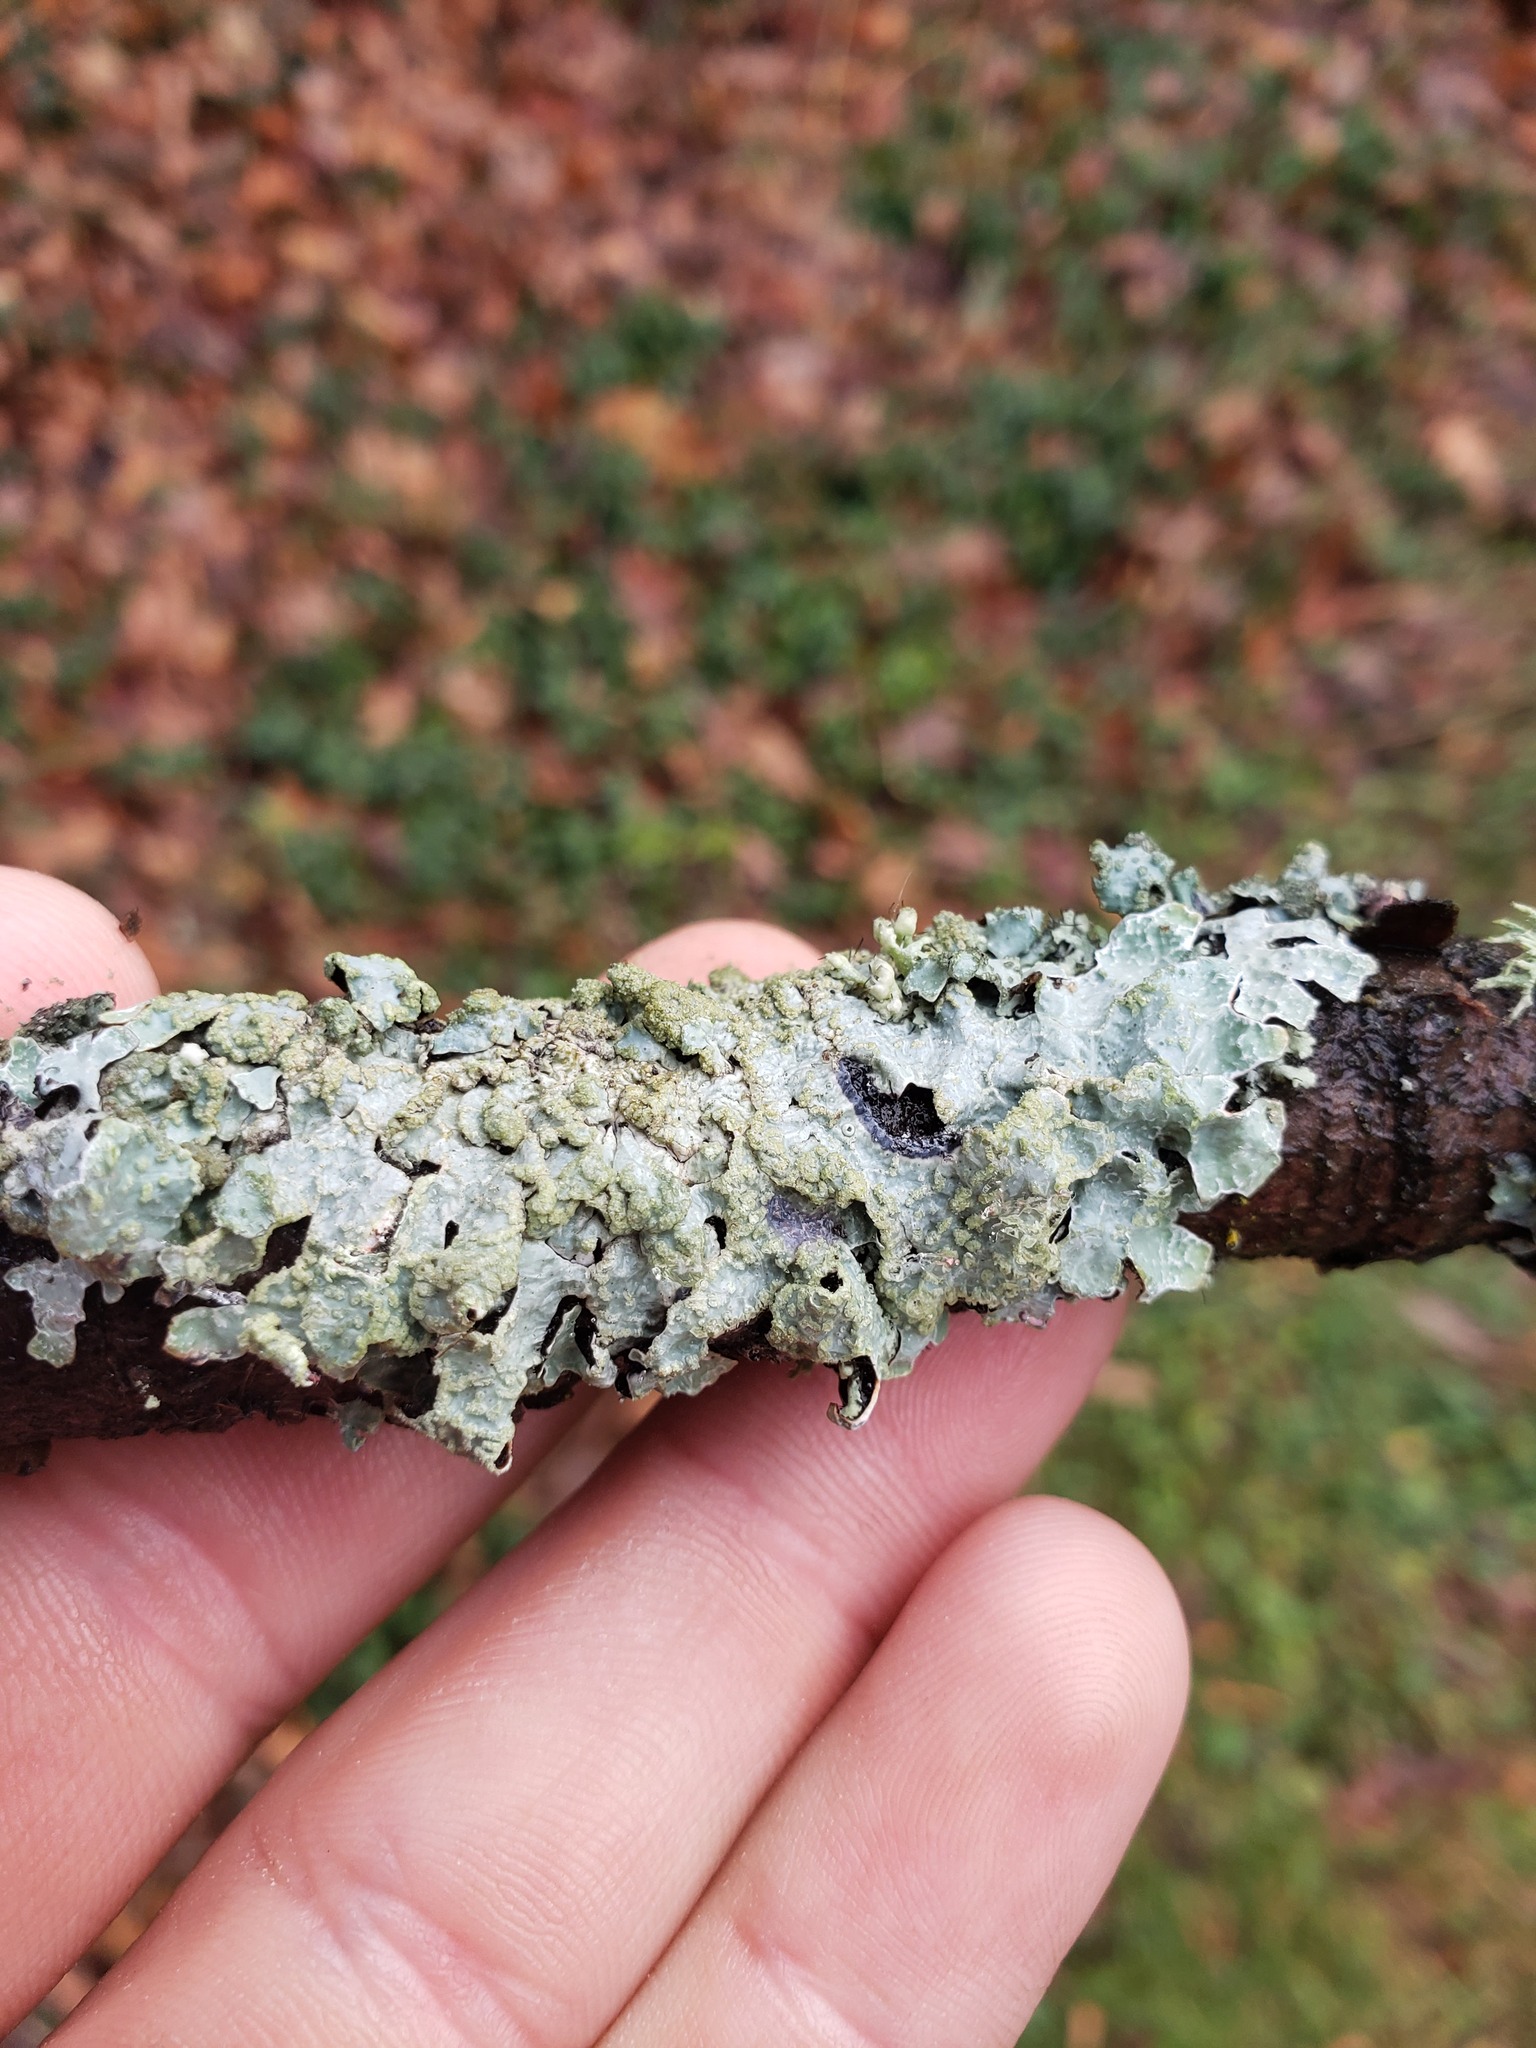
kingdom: Fungi
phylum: Ascomycota
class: Lecanoromycetes
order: Lecanorales
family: Parmeliaceae
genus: Parmelia
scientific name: Parmelia sulcata
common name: Netted shield lichen
